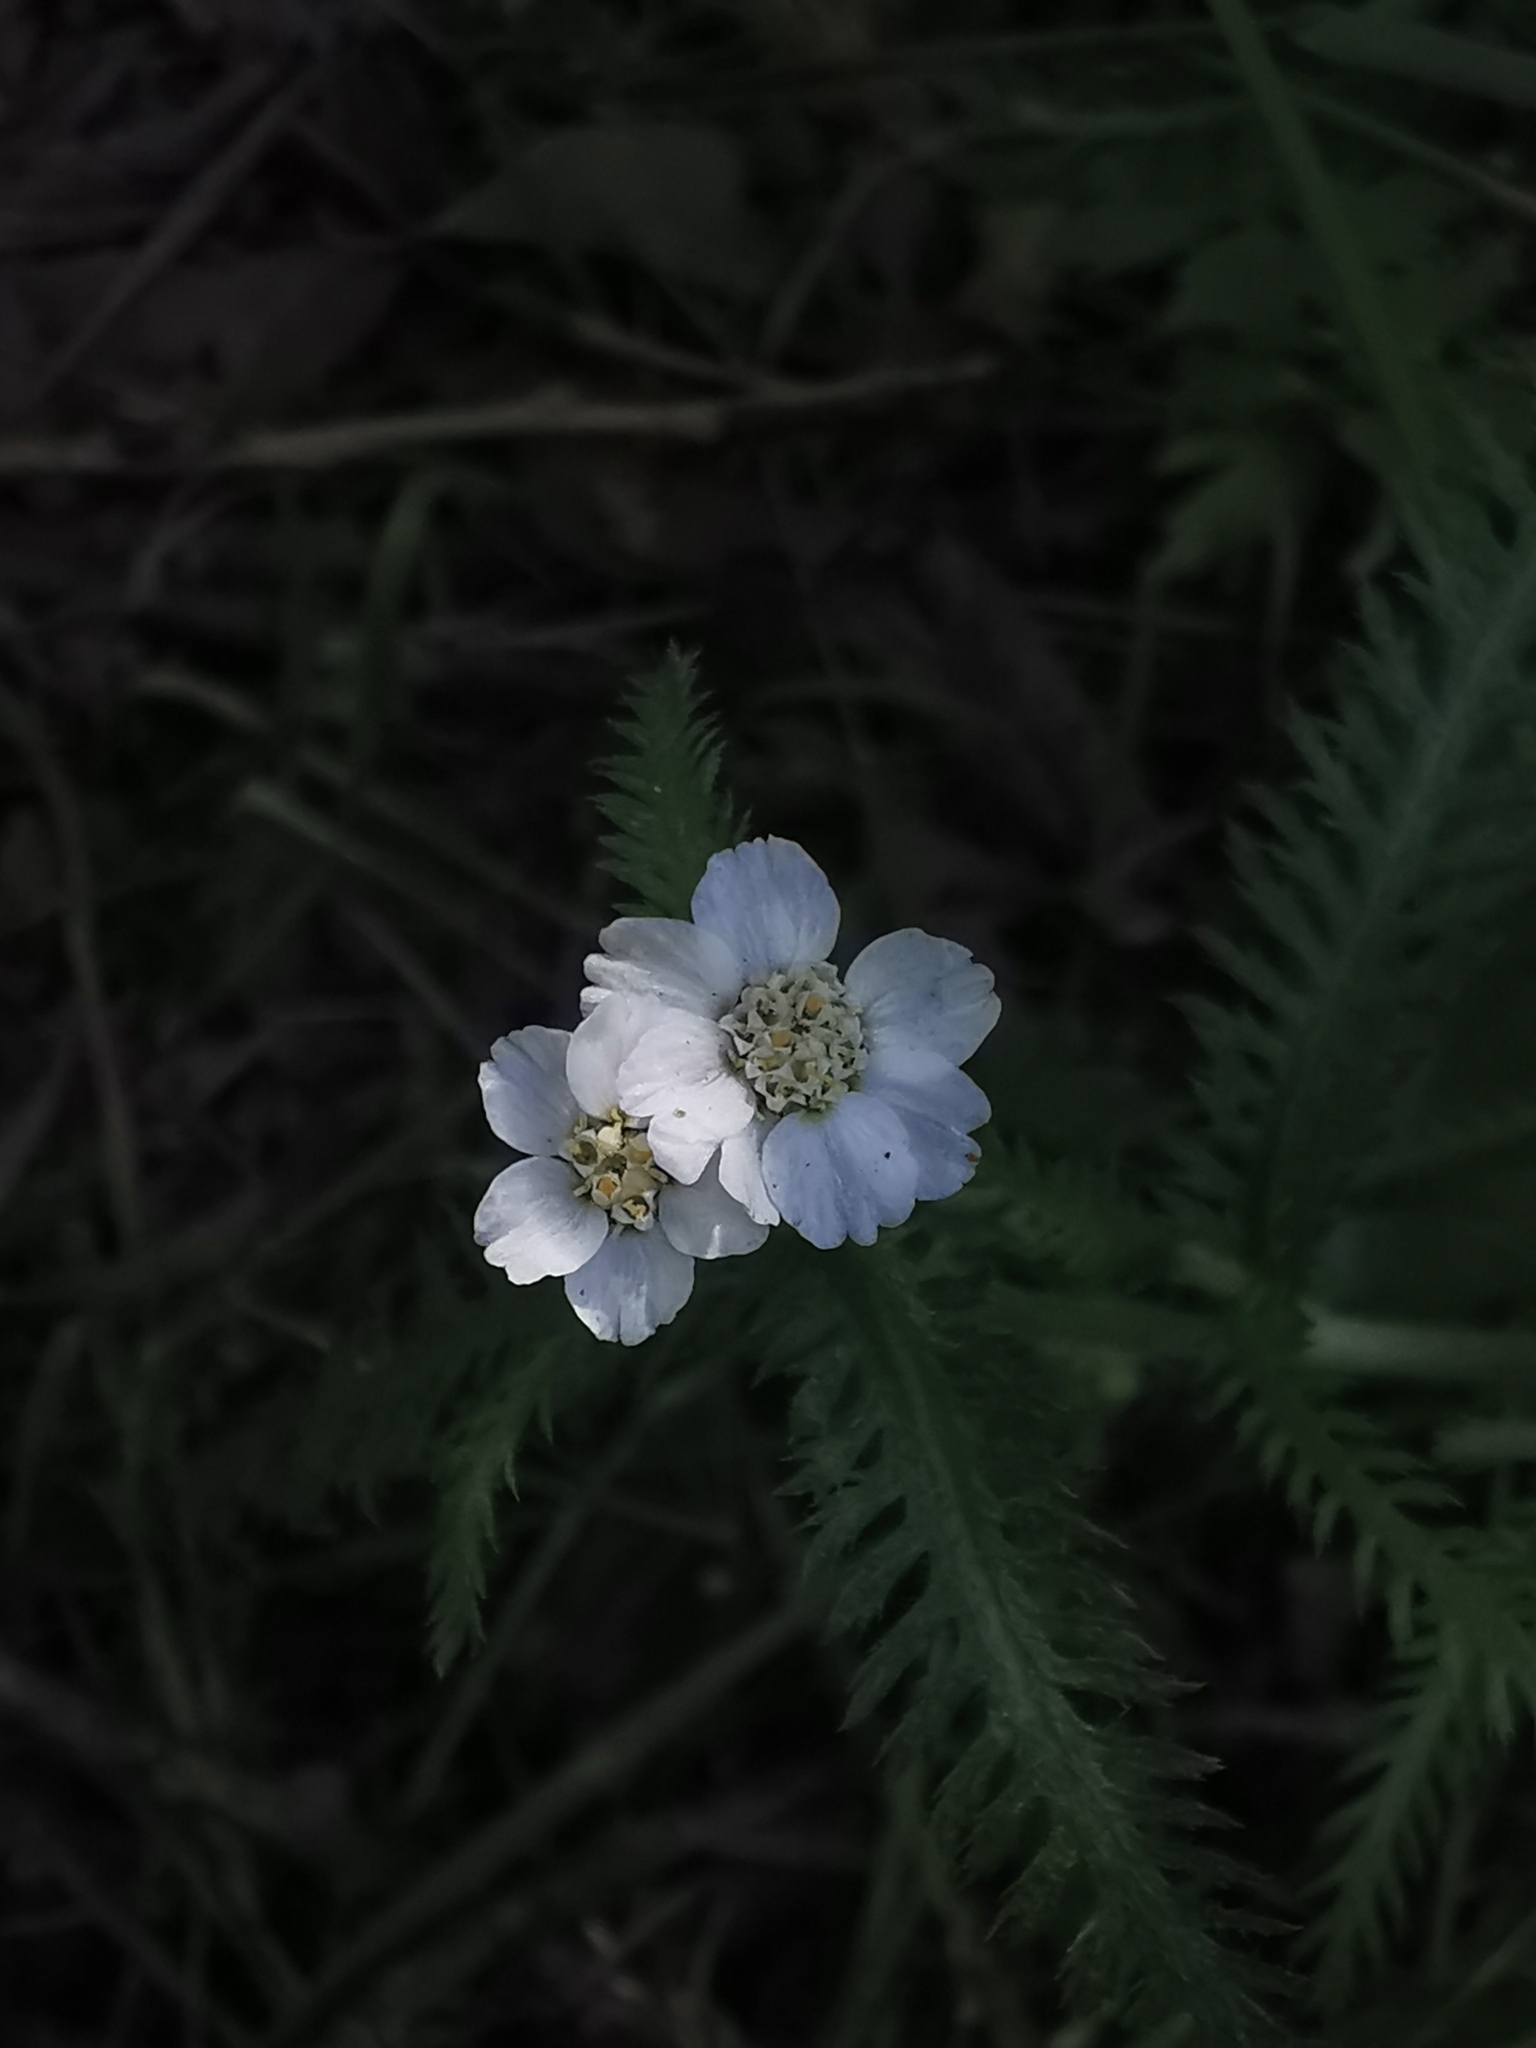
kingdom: Plantae
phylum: Tracheophyta
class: Magnoliopsida
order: Asterales
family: Asteraceae
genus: Achillea
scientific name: Achillea alpina
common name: Siberian yarrow
